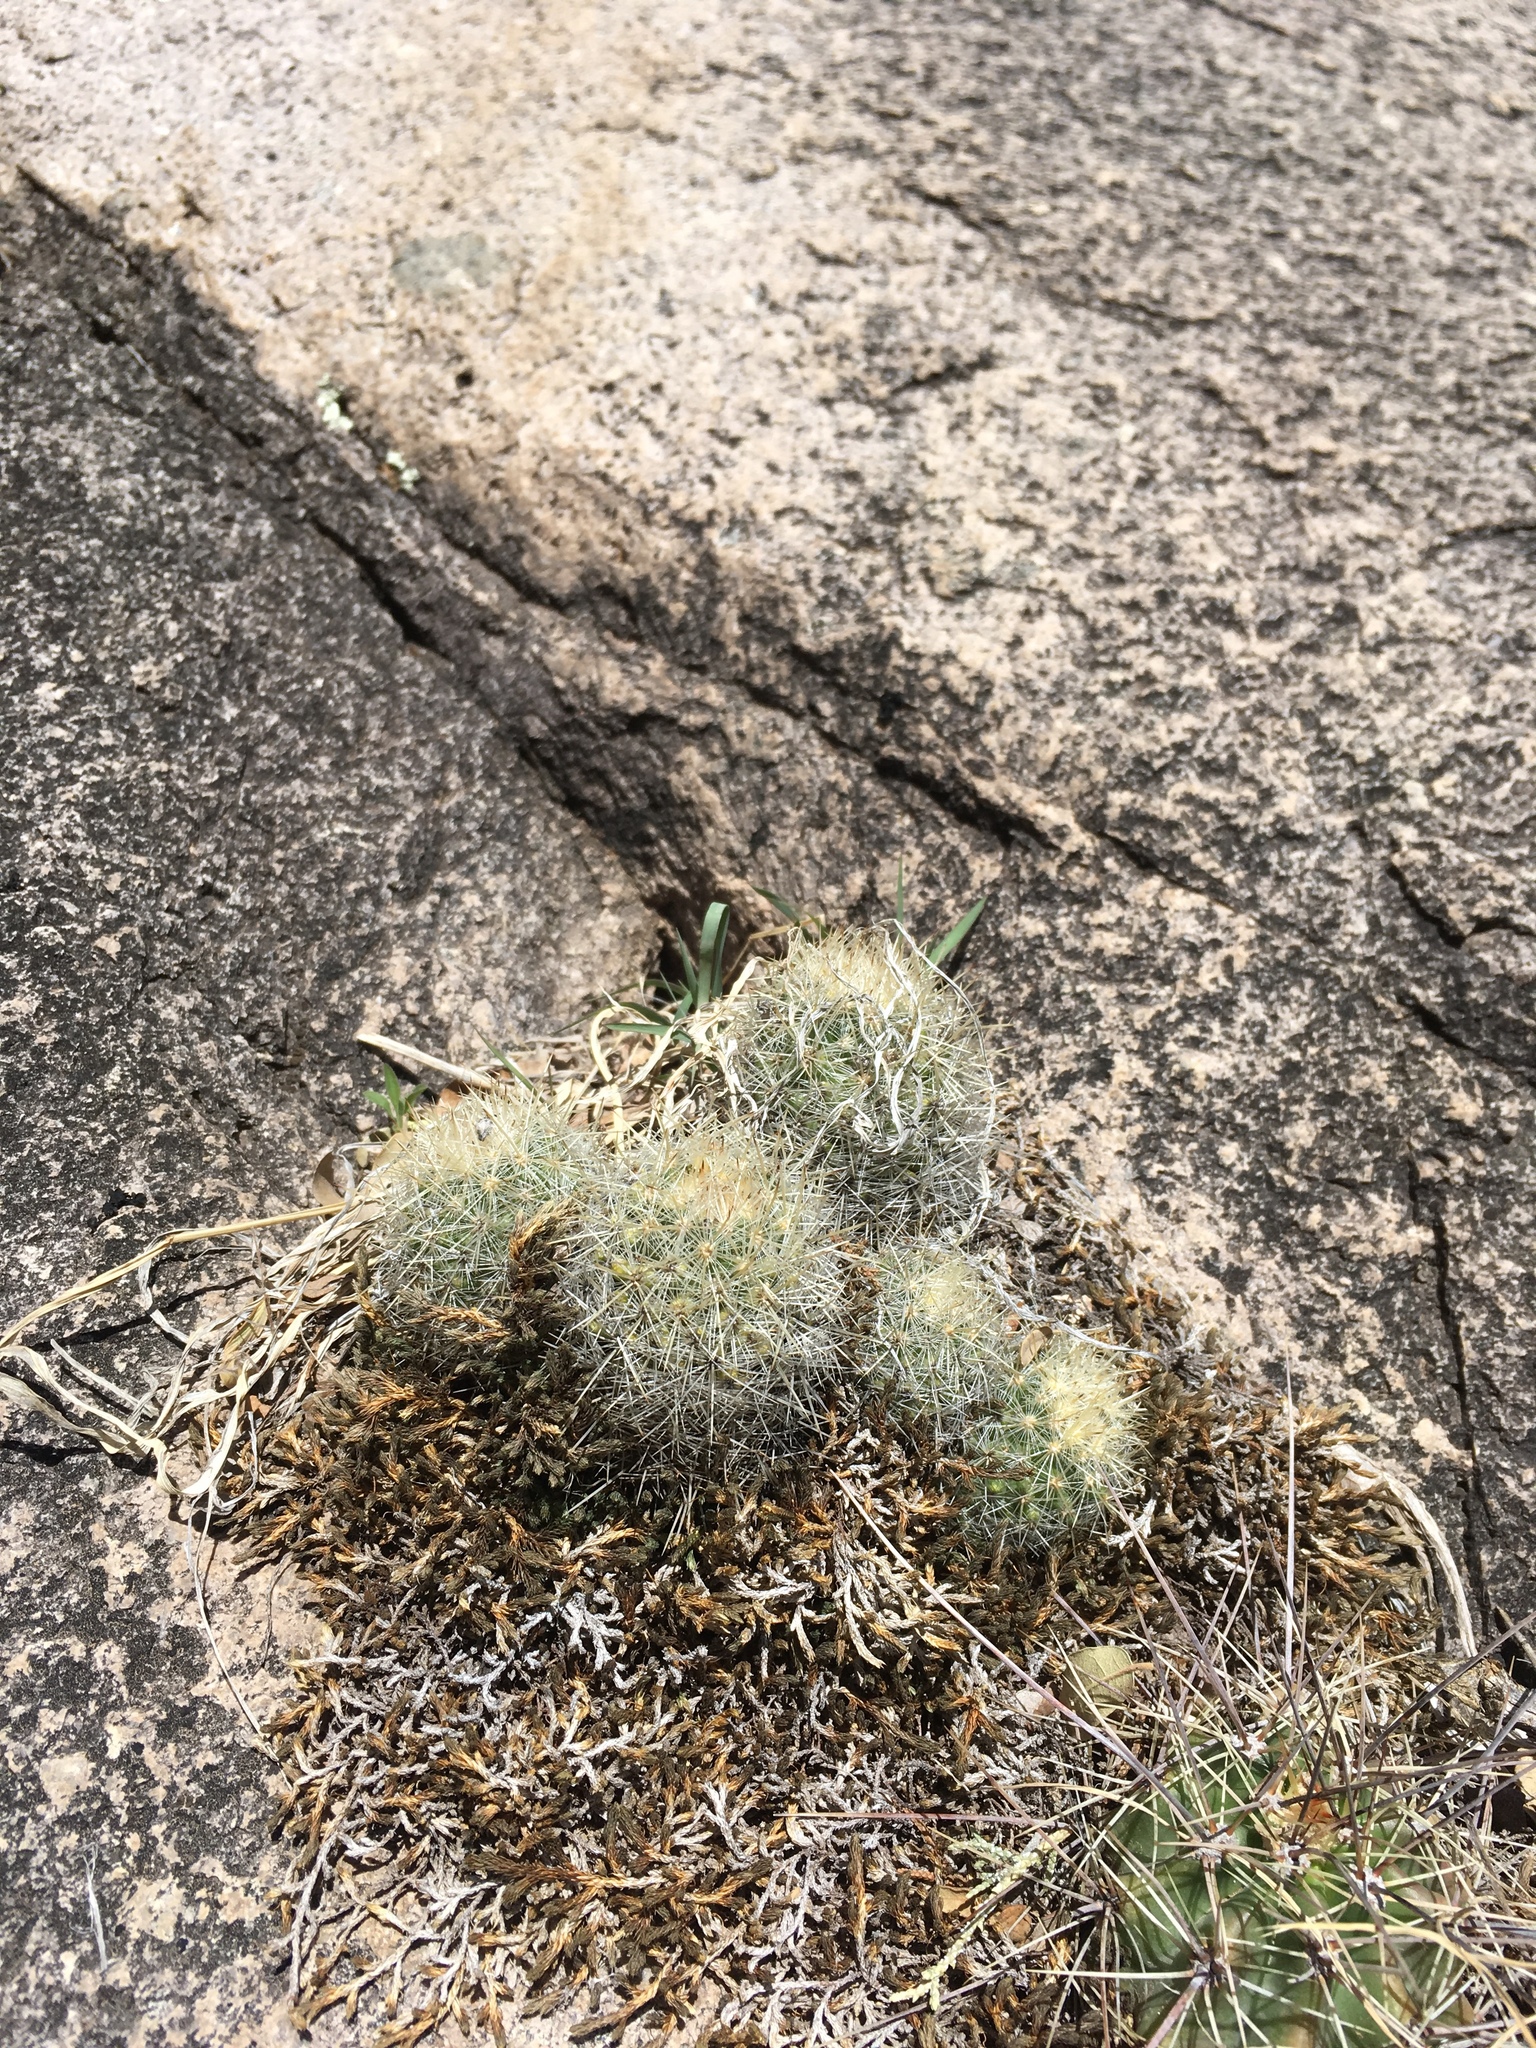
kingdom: Plantae
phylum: Tracheophyta
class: Magnoliopsida
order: Caryophyllales
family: Cactaceae
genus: Pelecyphora
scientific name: Pelecyphora sneedii
